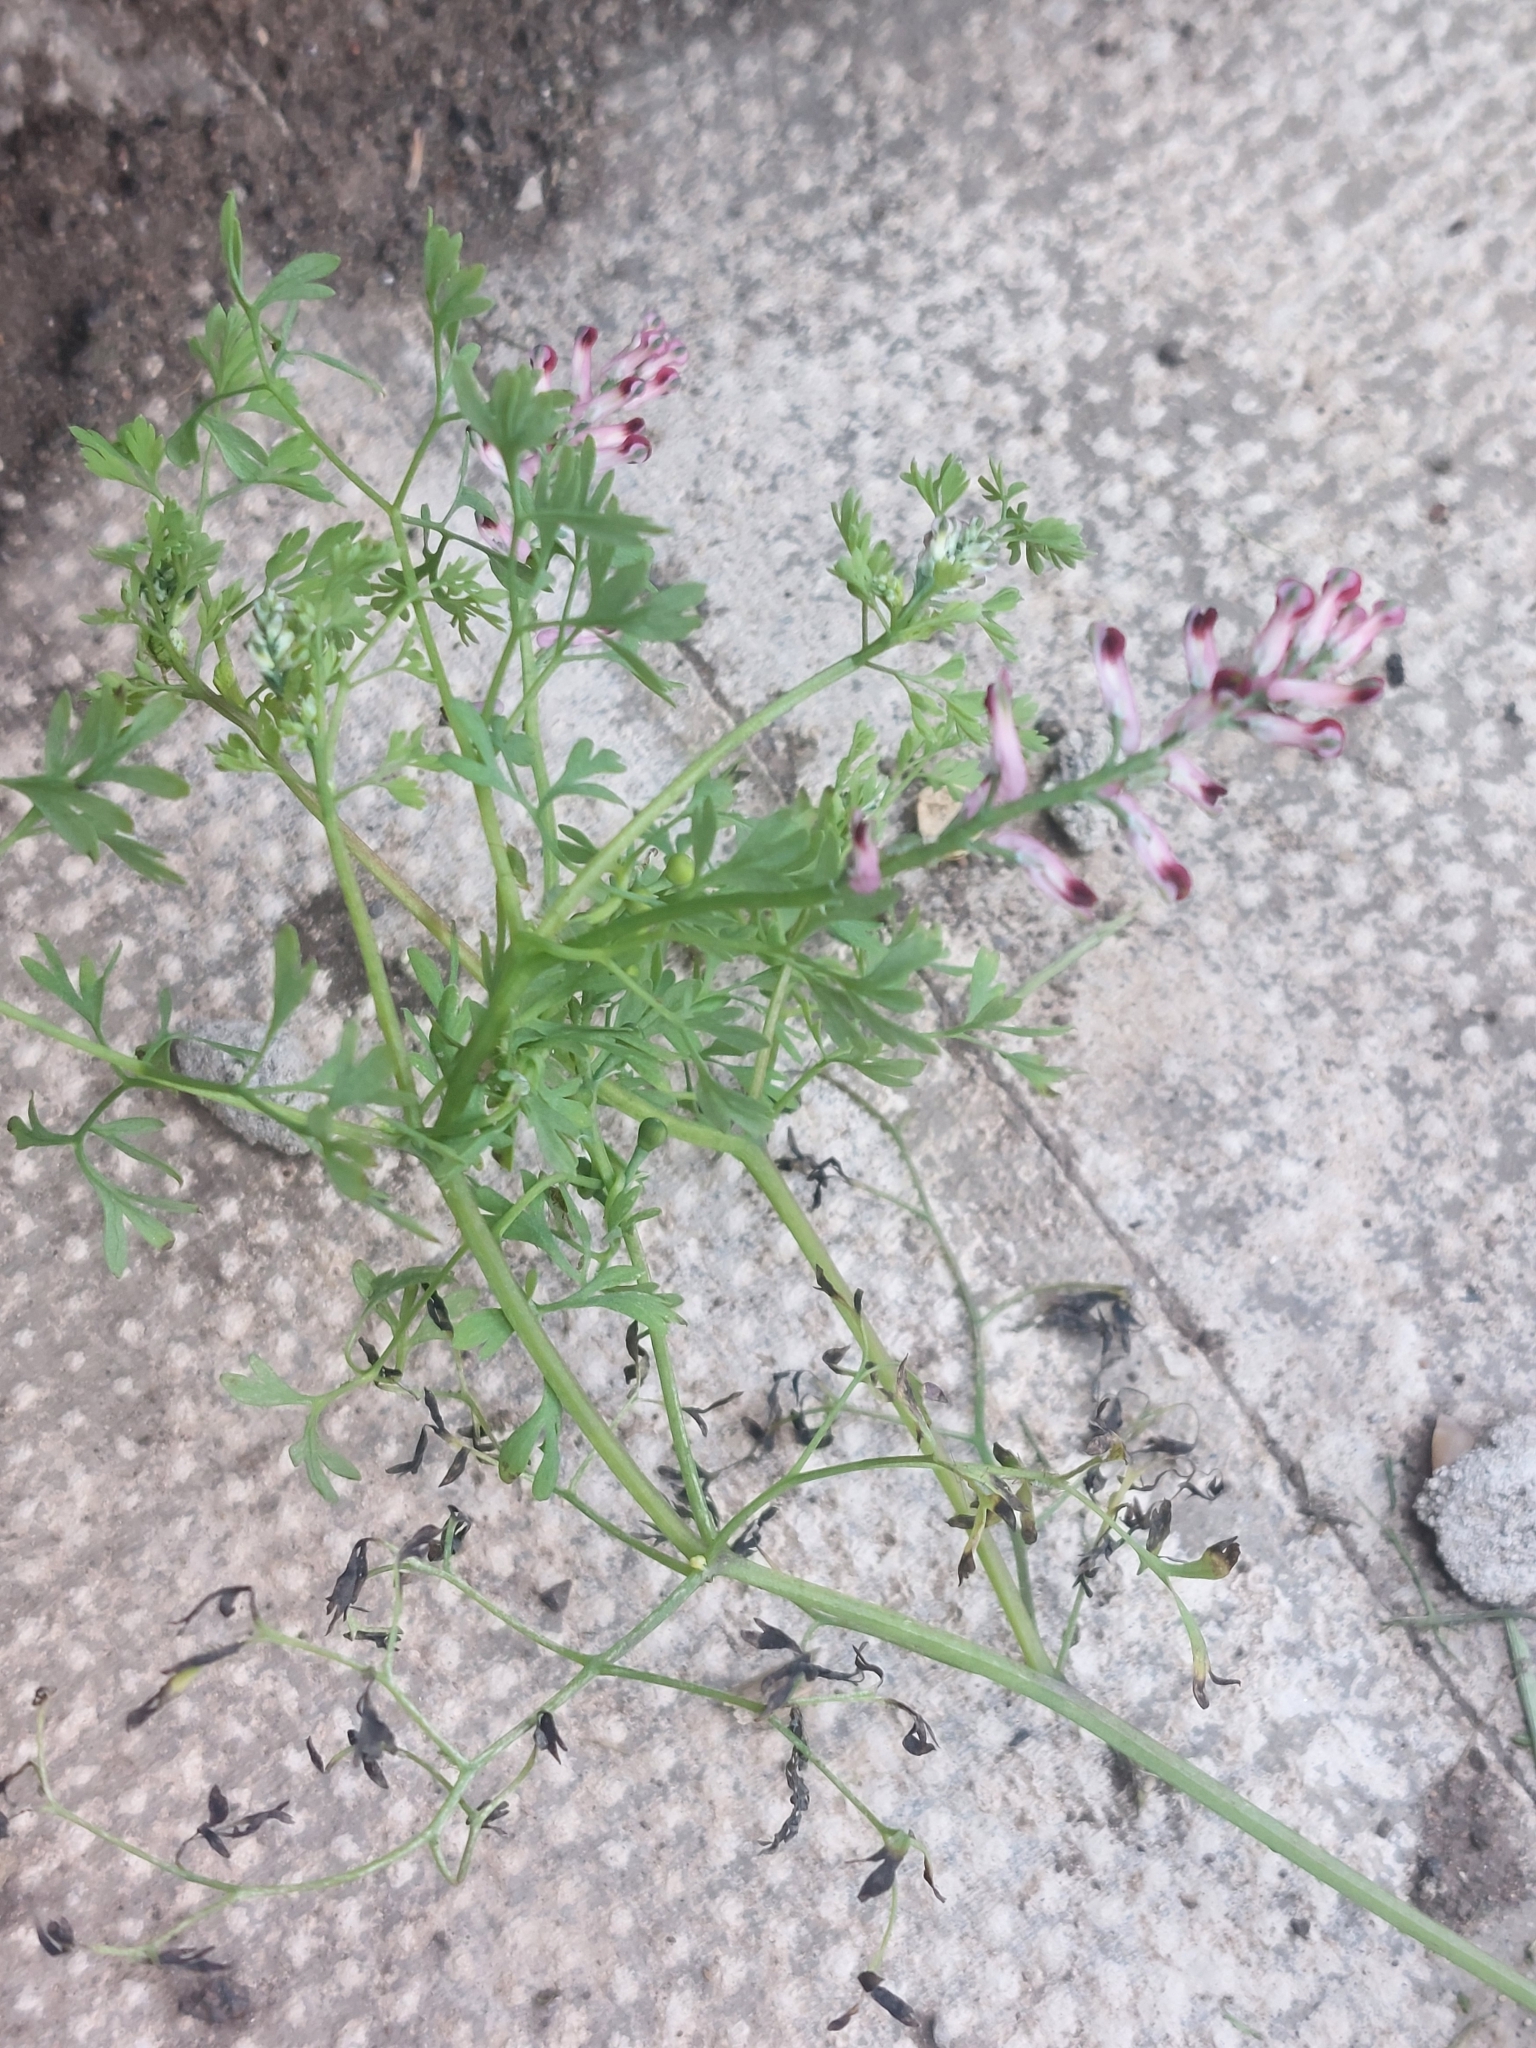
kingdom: Plantae
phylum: Tracheophyta
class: Magnoliopsida
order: Ranunculales
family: Papaveraceae
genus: Fumaria
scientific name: Fumaria officinalis
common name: Common fumitory
